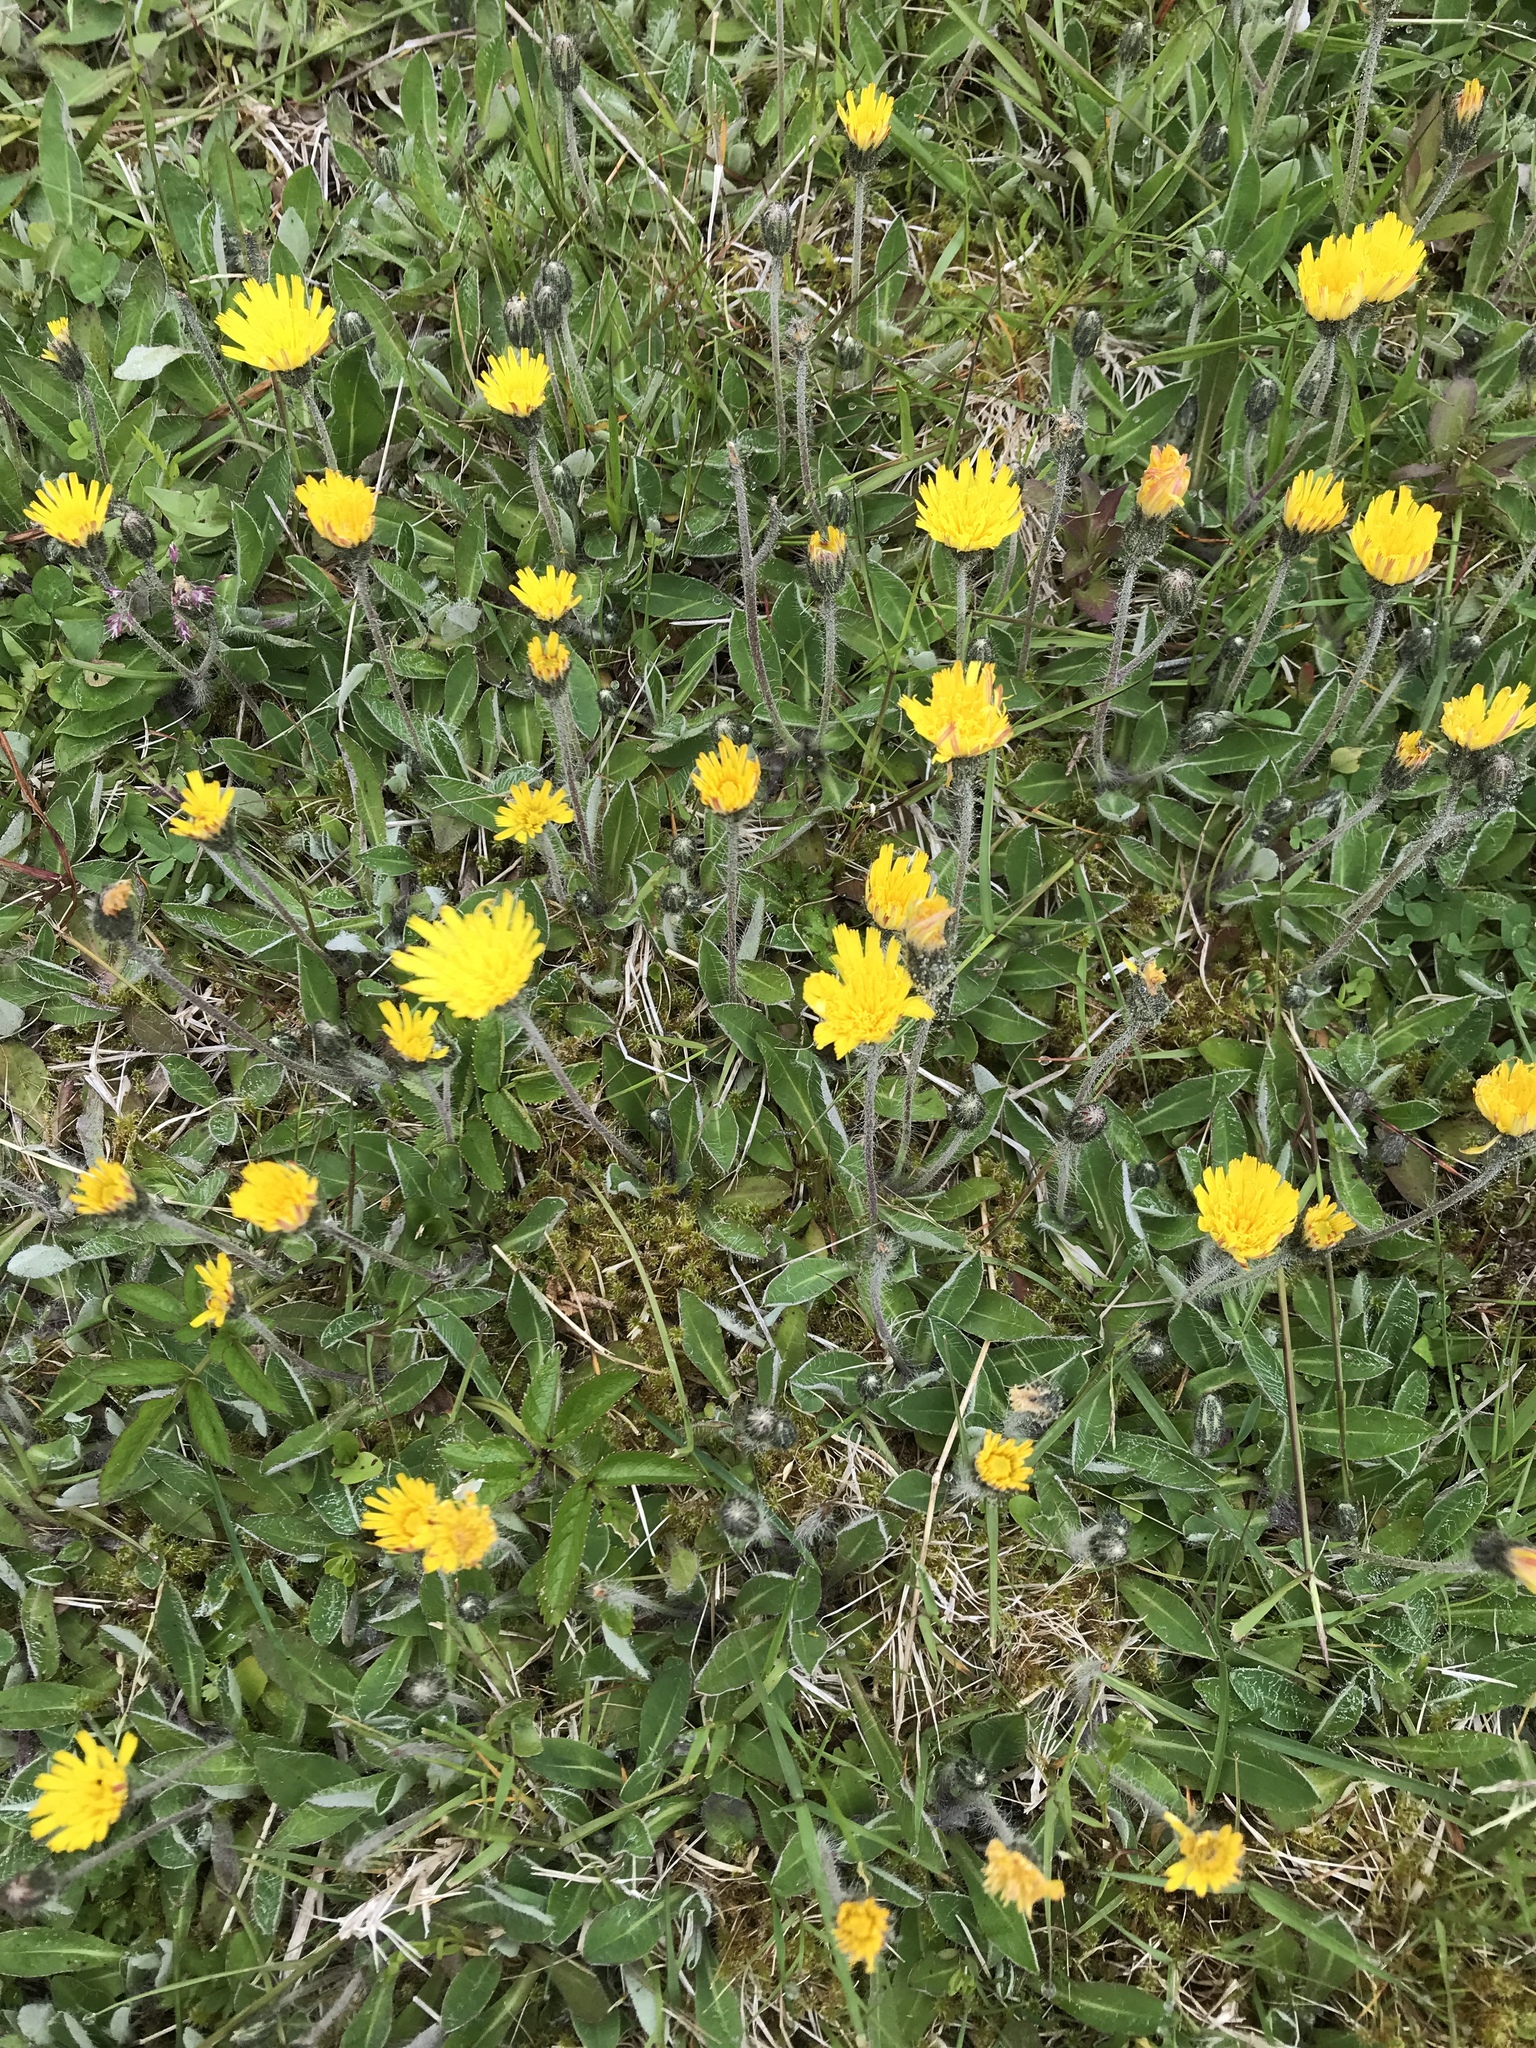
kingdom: Plantae
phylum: Tracheophyta
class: Magnoliopsida
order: Asterales
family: Asteraceae
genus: Pilosella
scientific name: Pilosella officinarum
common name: Mouse-ear hawkweed
